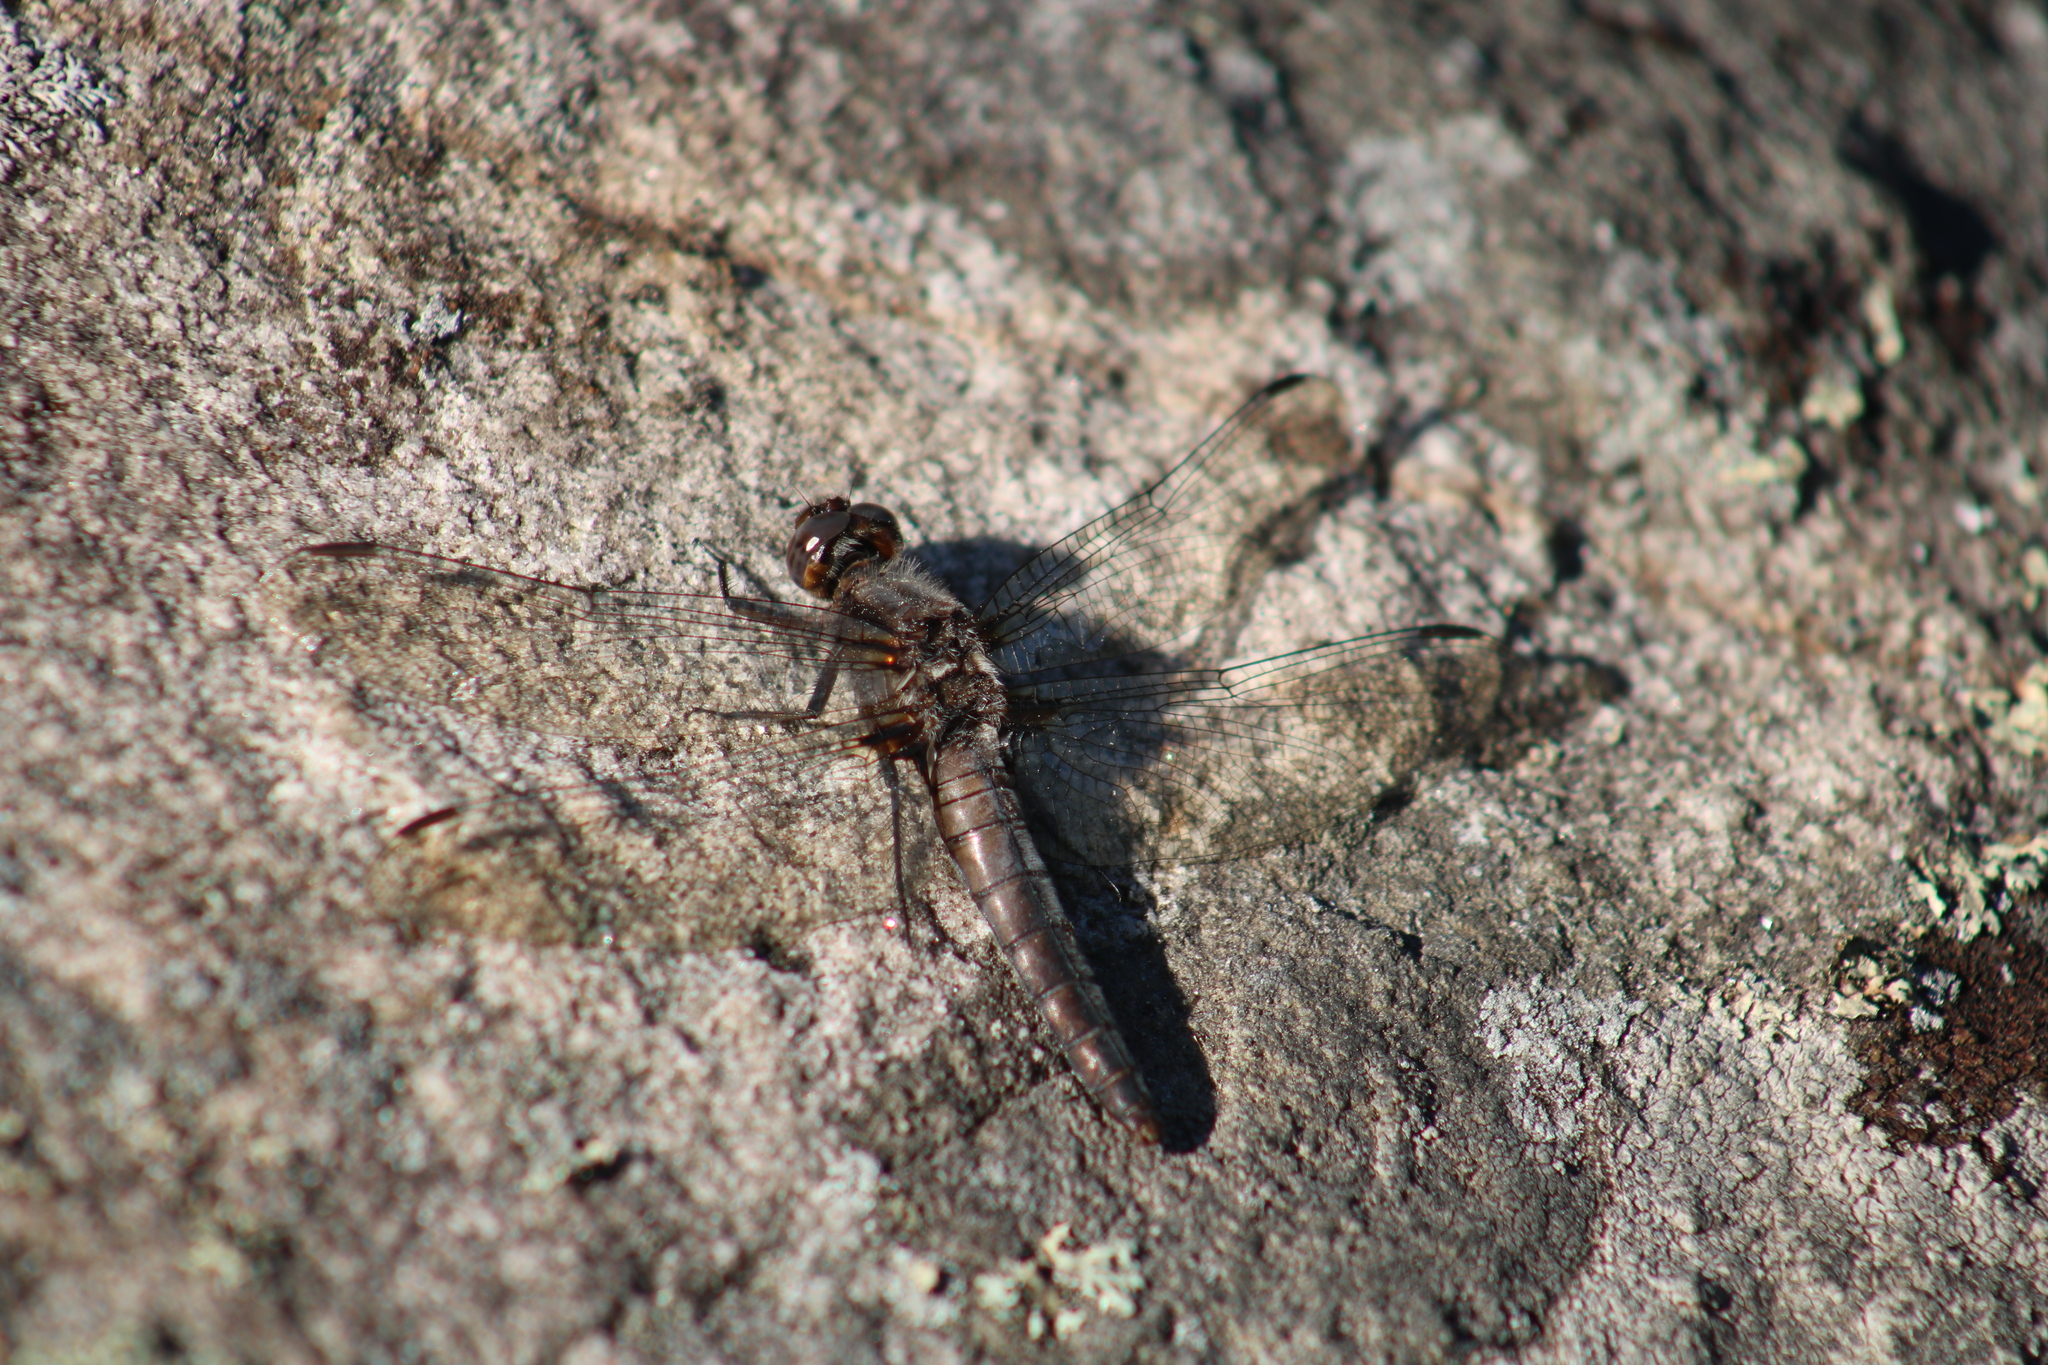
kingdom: Animalia
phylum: Arthropoda
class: Insecta
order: Odonata
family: Libellulidae
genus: Ladona
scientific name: Ladona julia
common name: Chalk-fronted corporal
